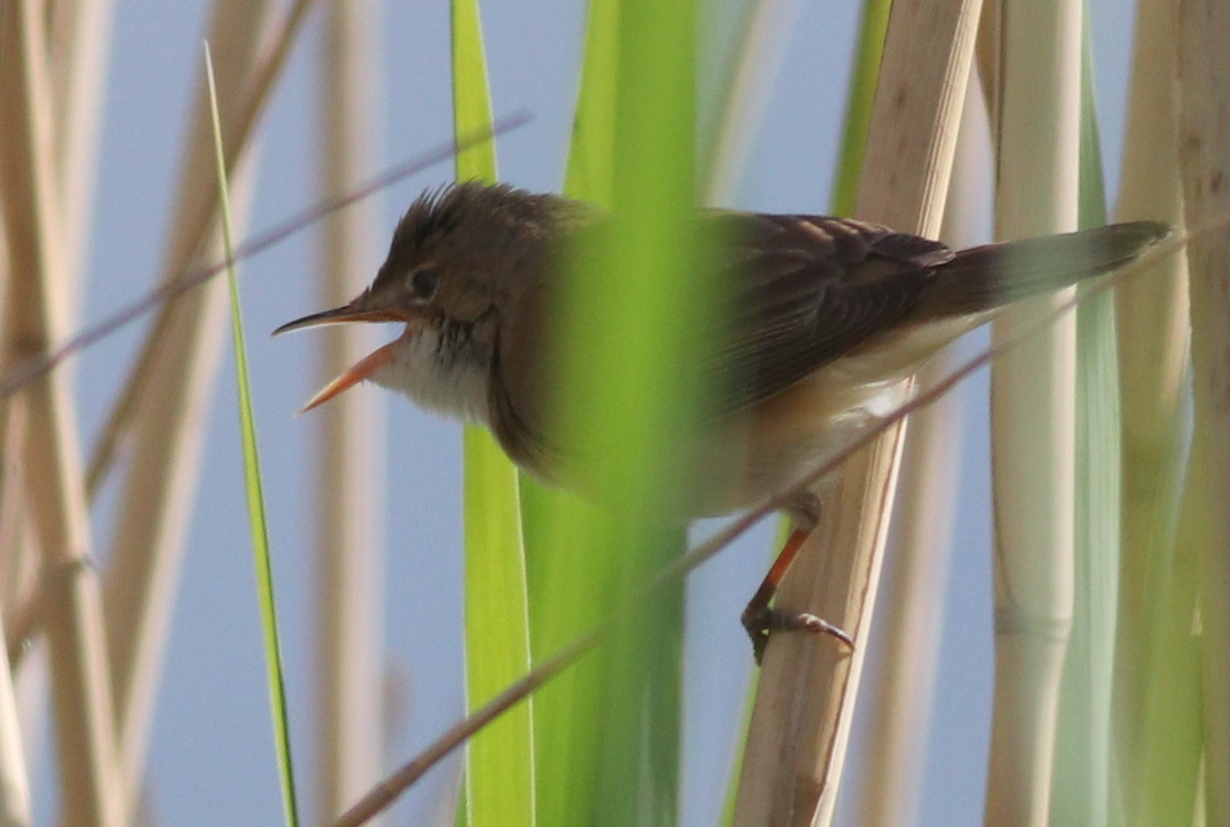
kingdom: Animalia
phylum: Chordata
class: Aves
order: Passeriformes
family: Acrocephalidae
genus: Acrocephalus
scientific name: Acrocephalus scirpaceus
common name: Eurasian reed warbler
